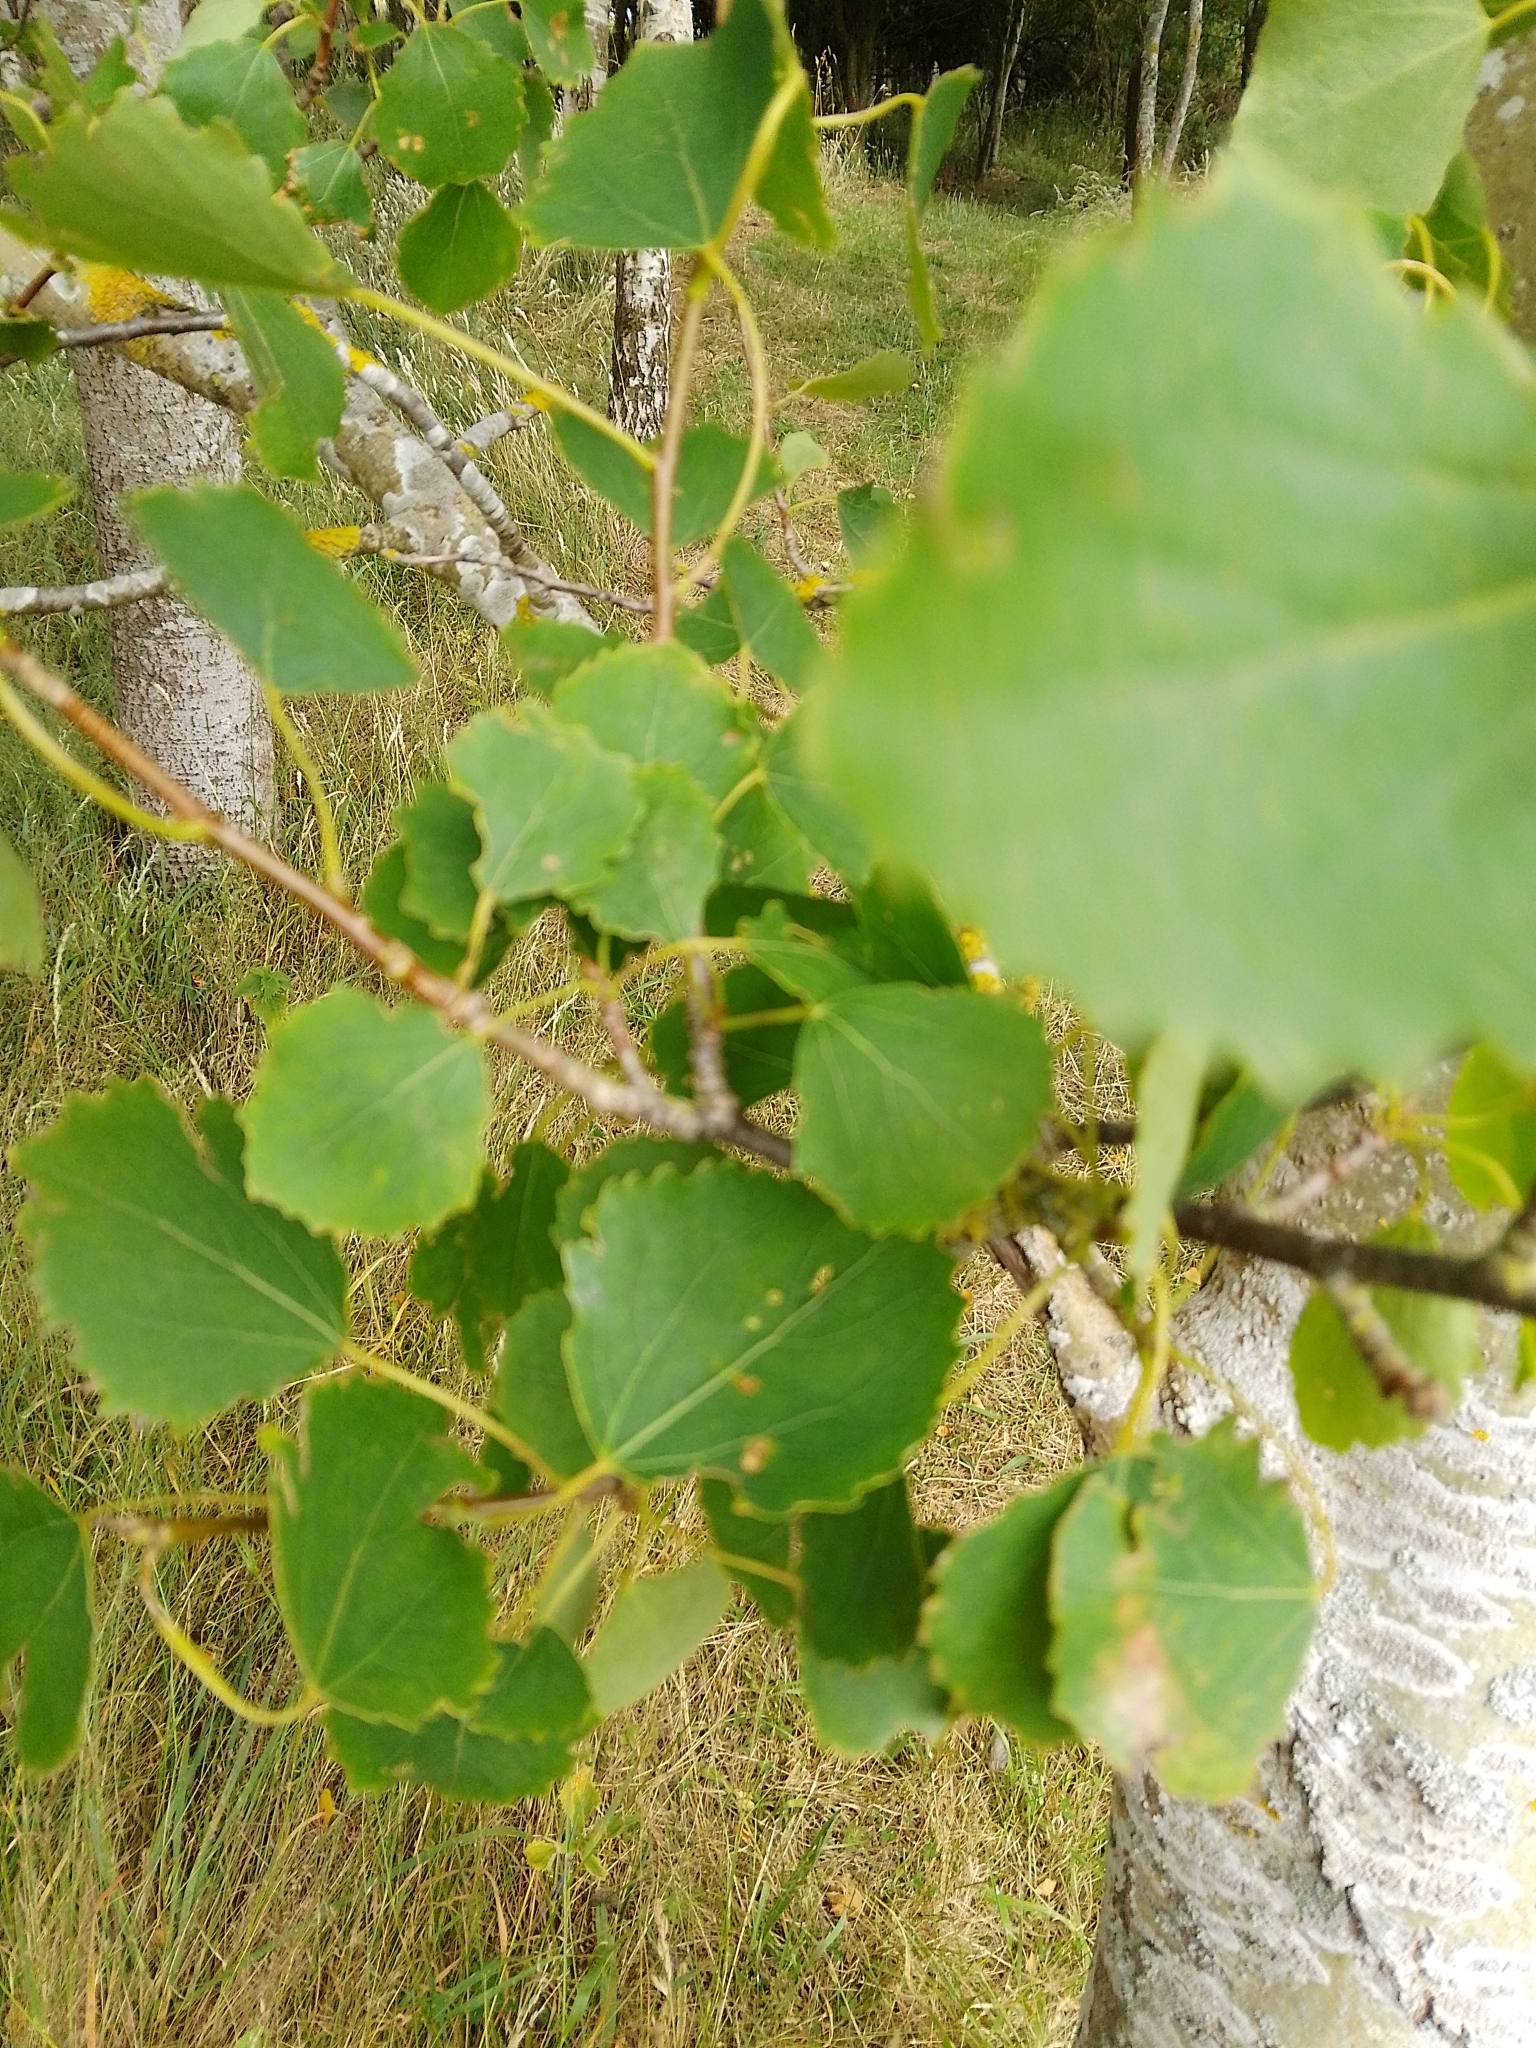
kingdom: Plantae
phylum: Tracheophyta
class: Magnoliopsida
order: Malpighiales
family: Salicaceae
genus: Populus
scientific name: Populus tremula
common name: European aspen
